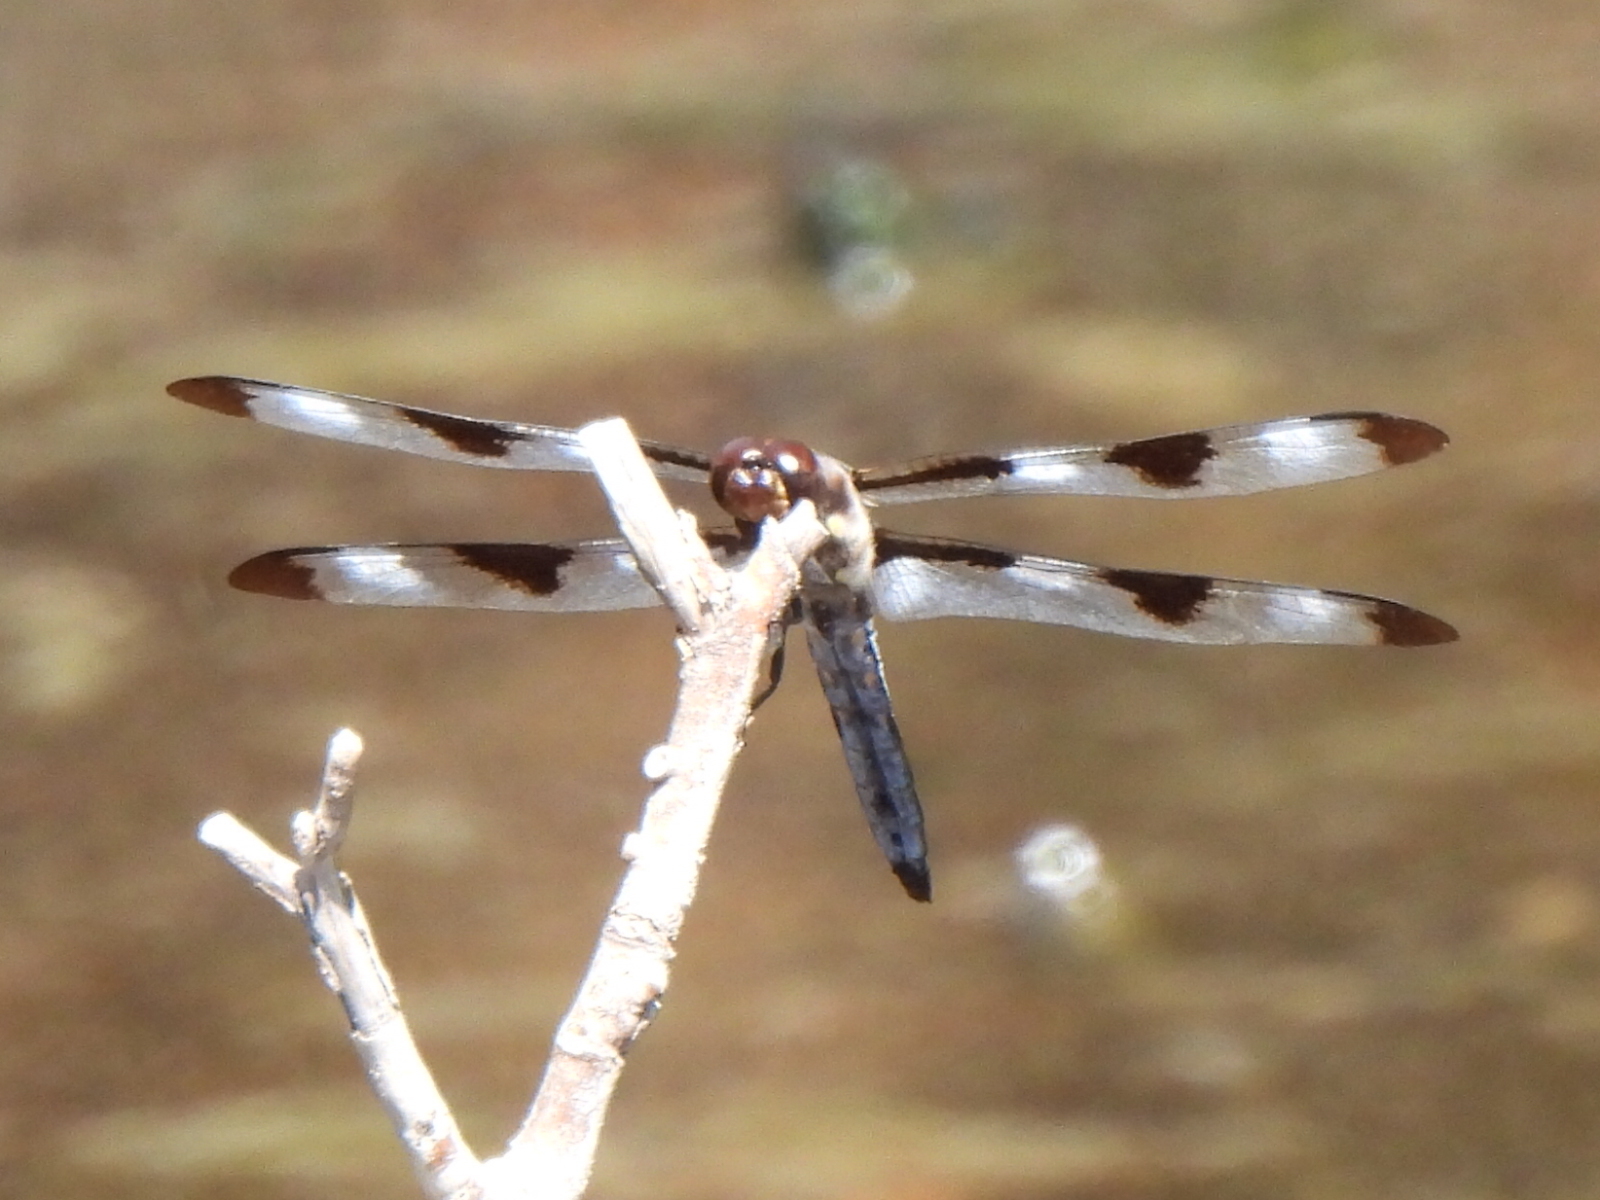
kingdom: Animalia
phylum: Arthropoda
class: Insecta
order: Odonata
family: Libellulidae
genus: Libellula
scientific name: Libellula pulchella
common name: Twelve-spotted skimmer
